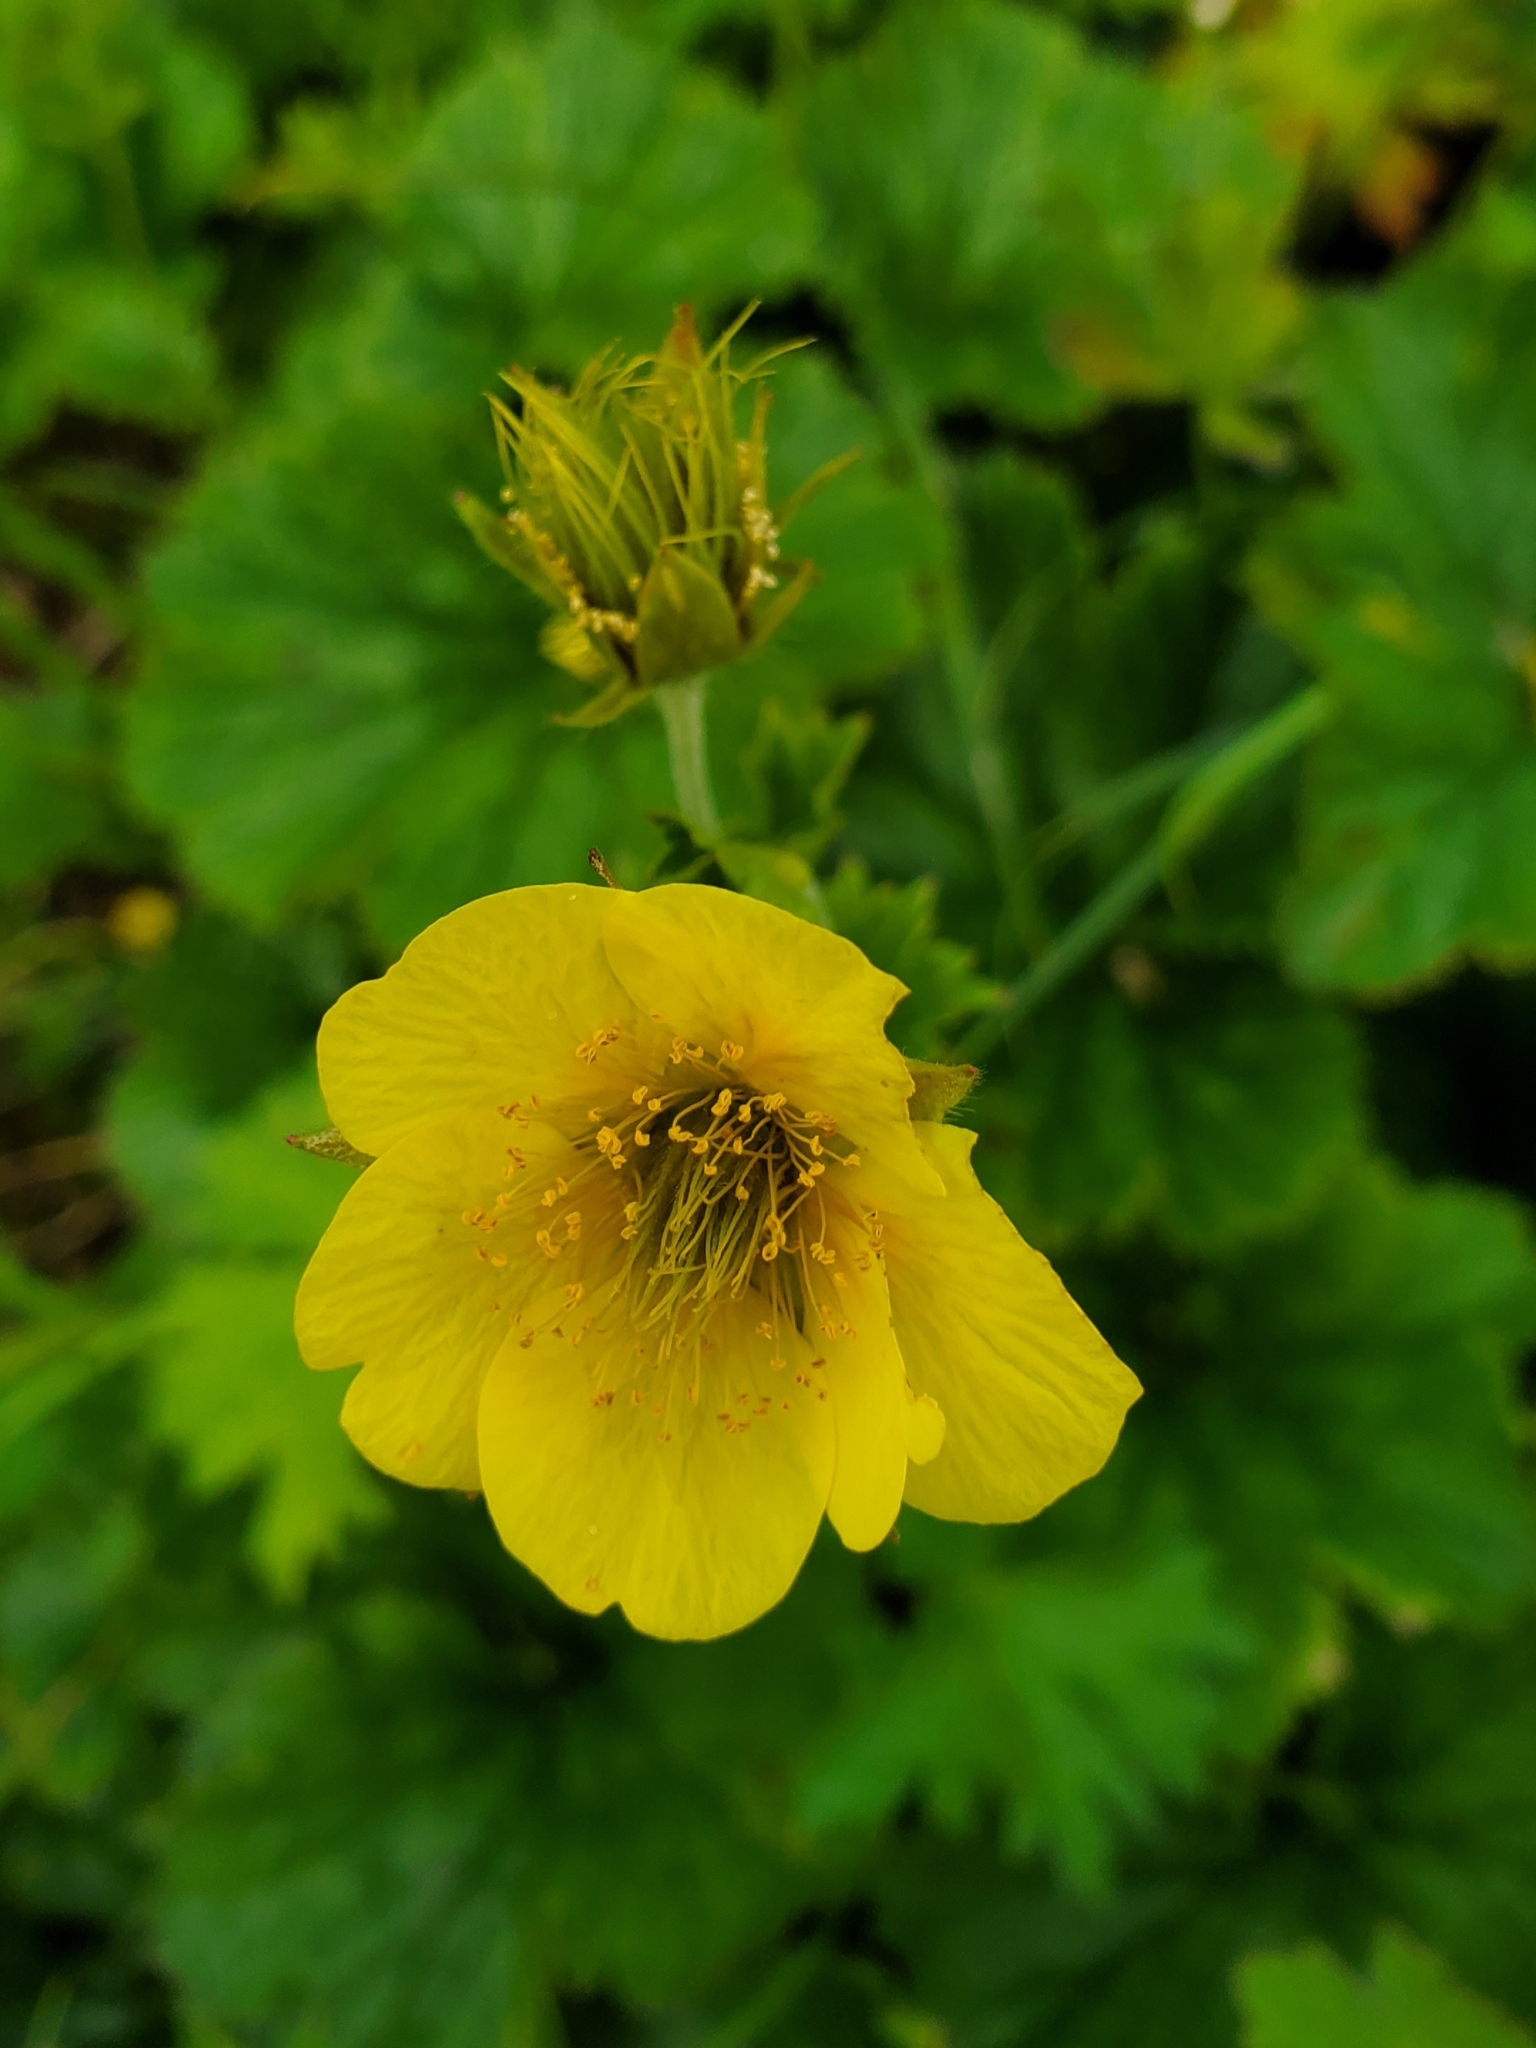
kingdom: Plantae
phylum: Tracheophyta
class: Magnoliopsida
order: Rosales
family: Rosaceae
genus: Geum
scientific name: Geum calthifolium
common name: Caltha-leaved avens
